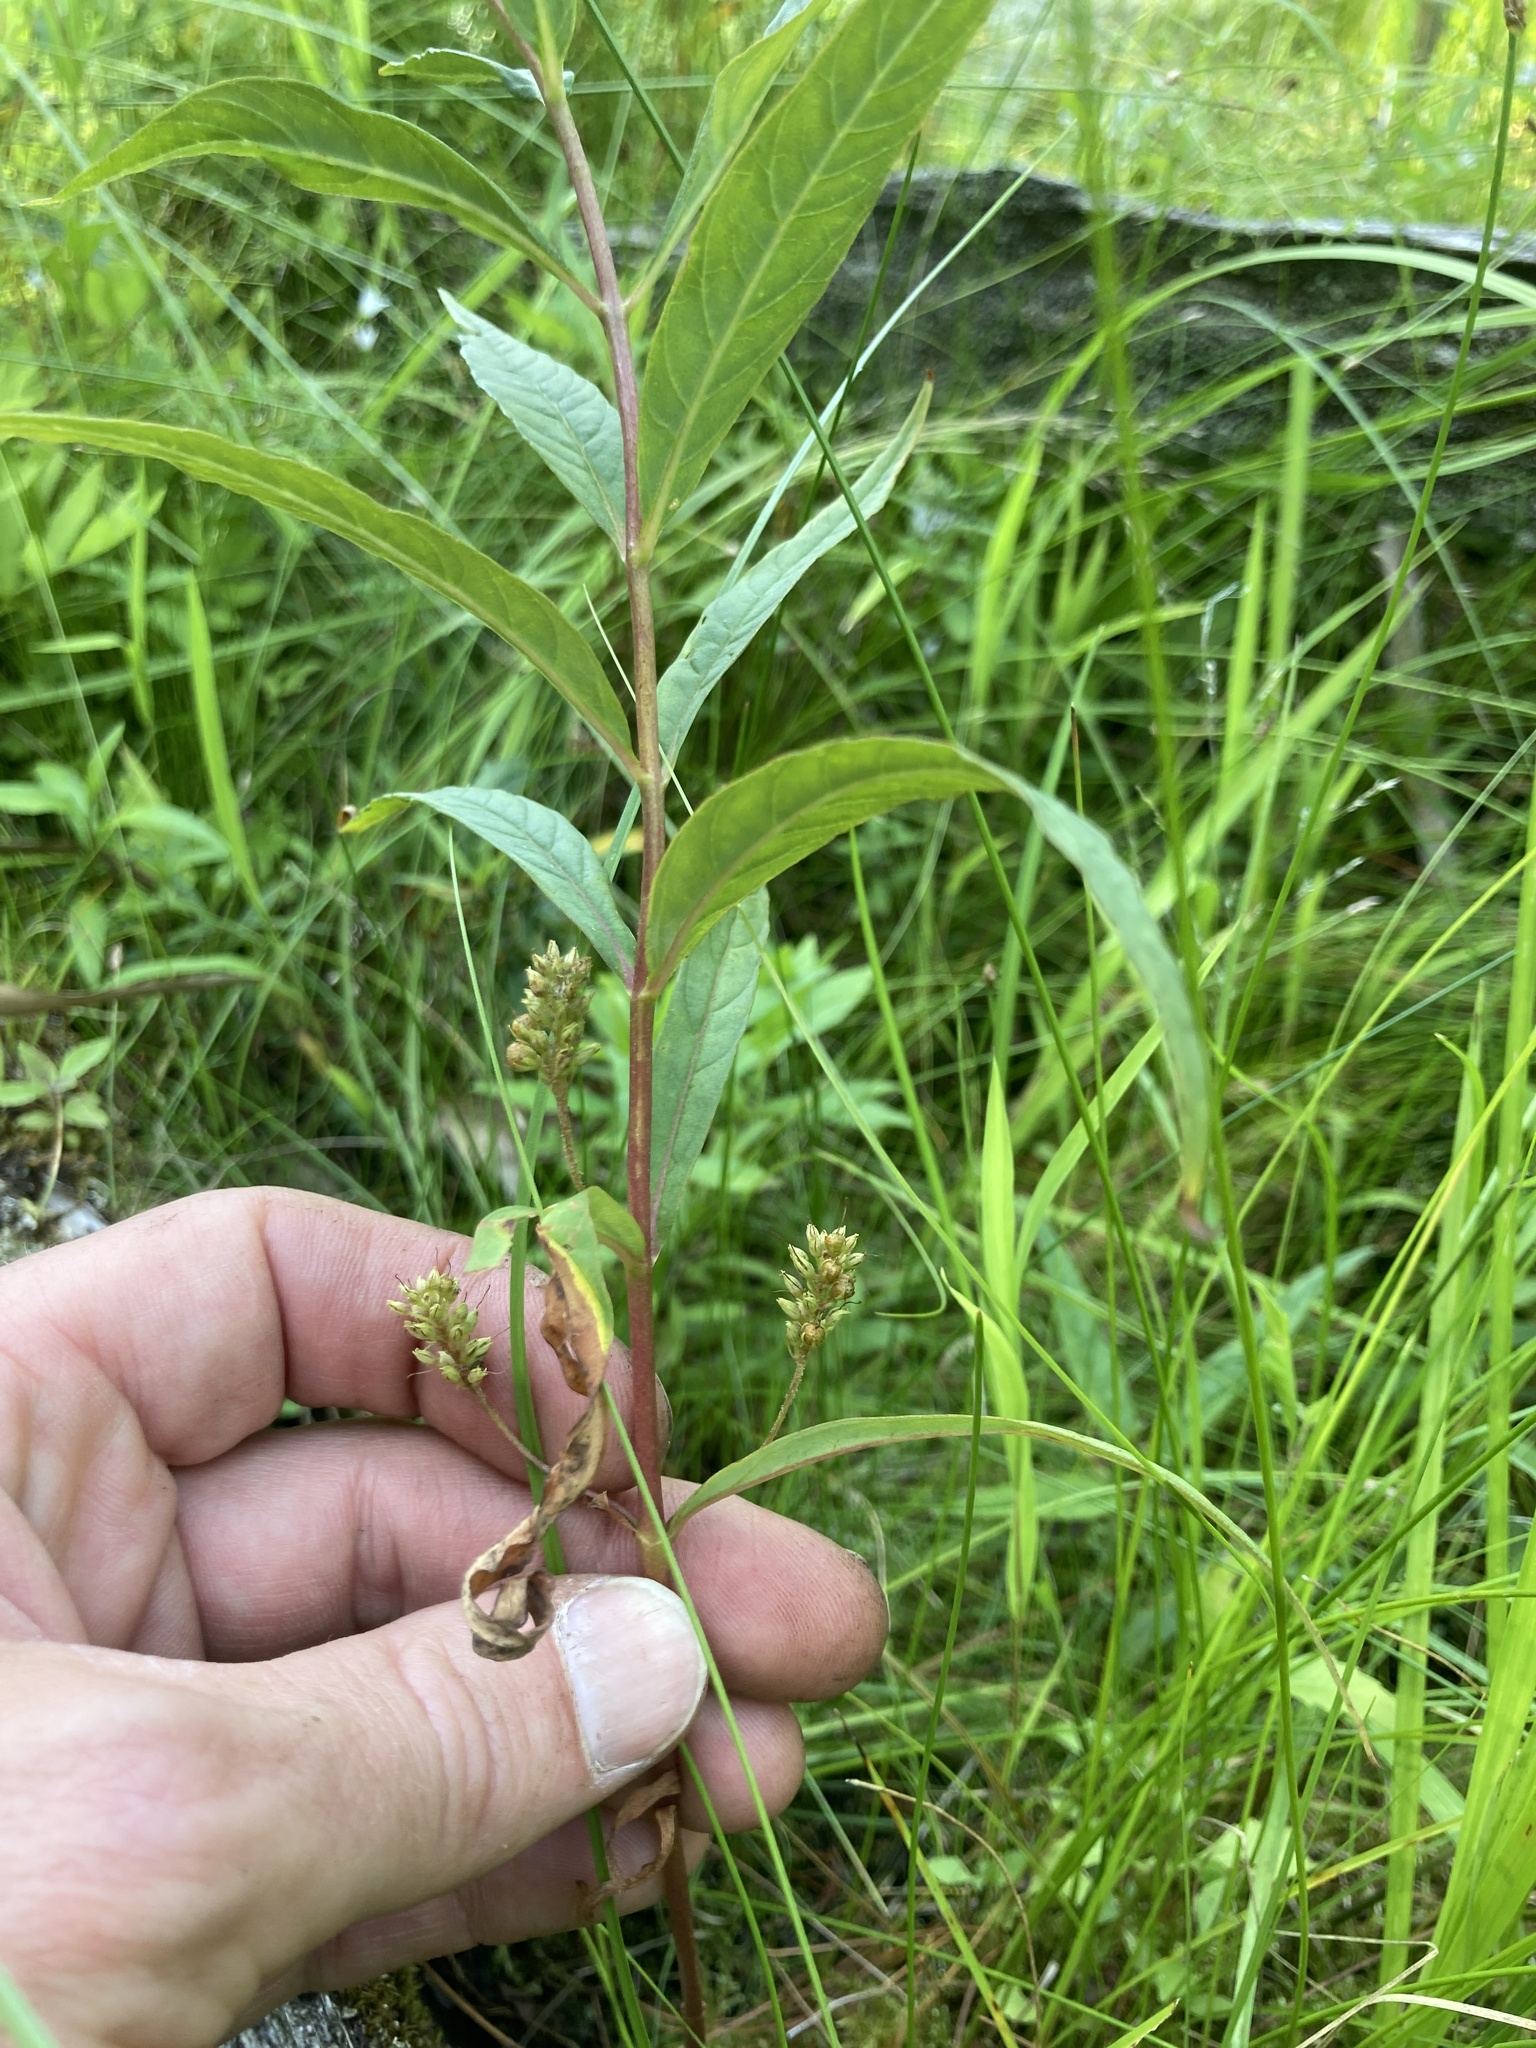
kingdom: Plantae
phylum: Tracheophyta
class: Magnoliopsida
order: Ericales
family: Primulaceae
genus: Lysimachia
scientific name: Lysimachia thyrsiflora
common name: Tufted loosestrife
